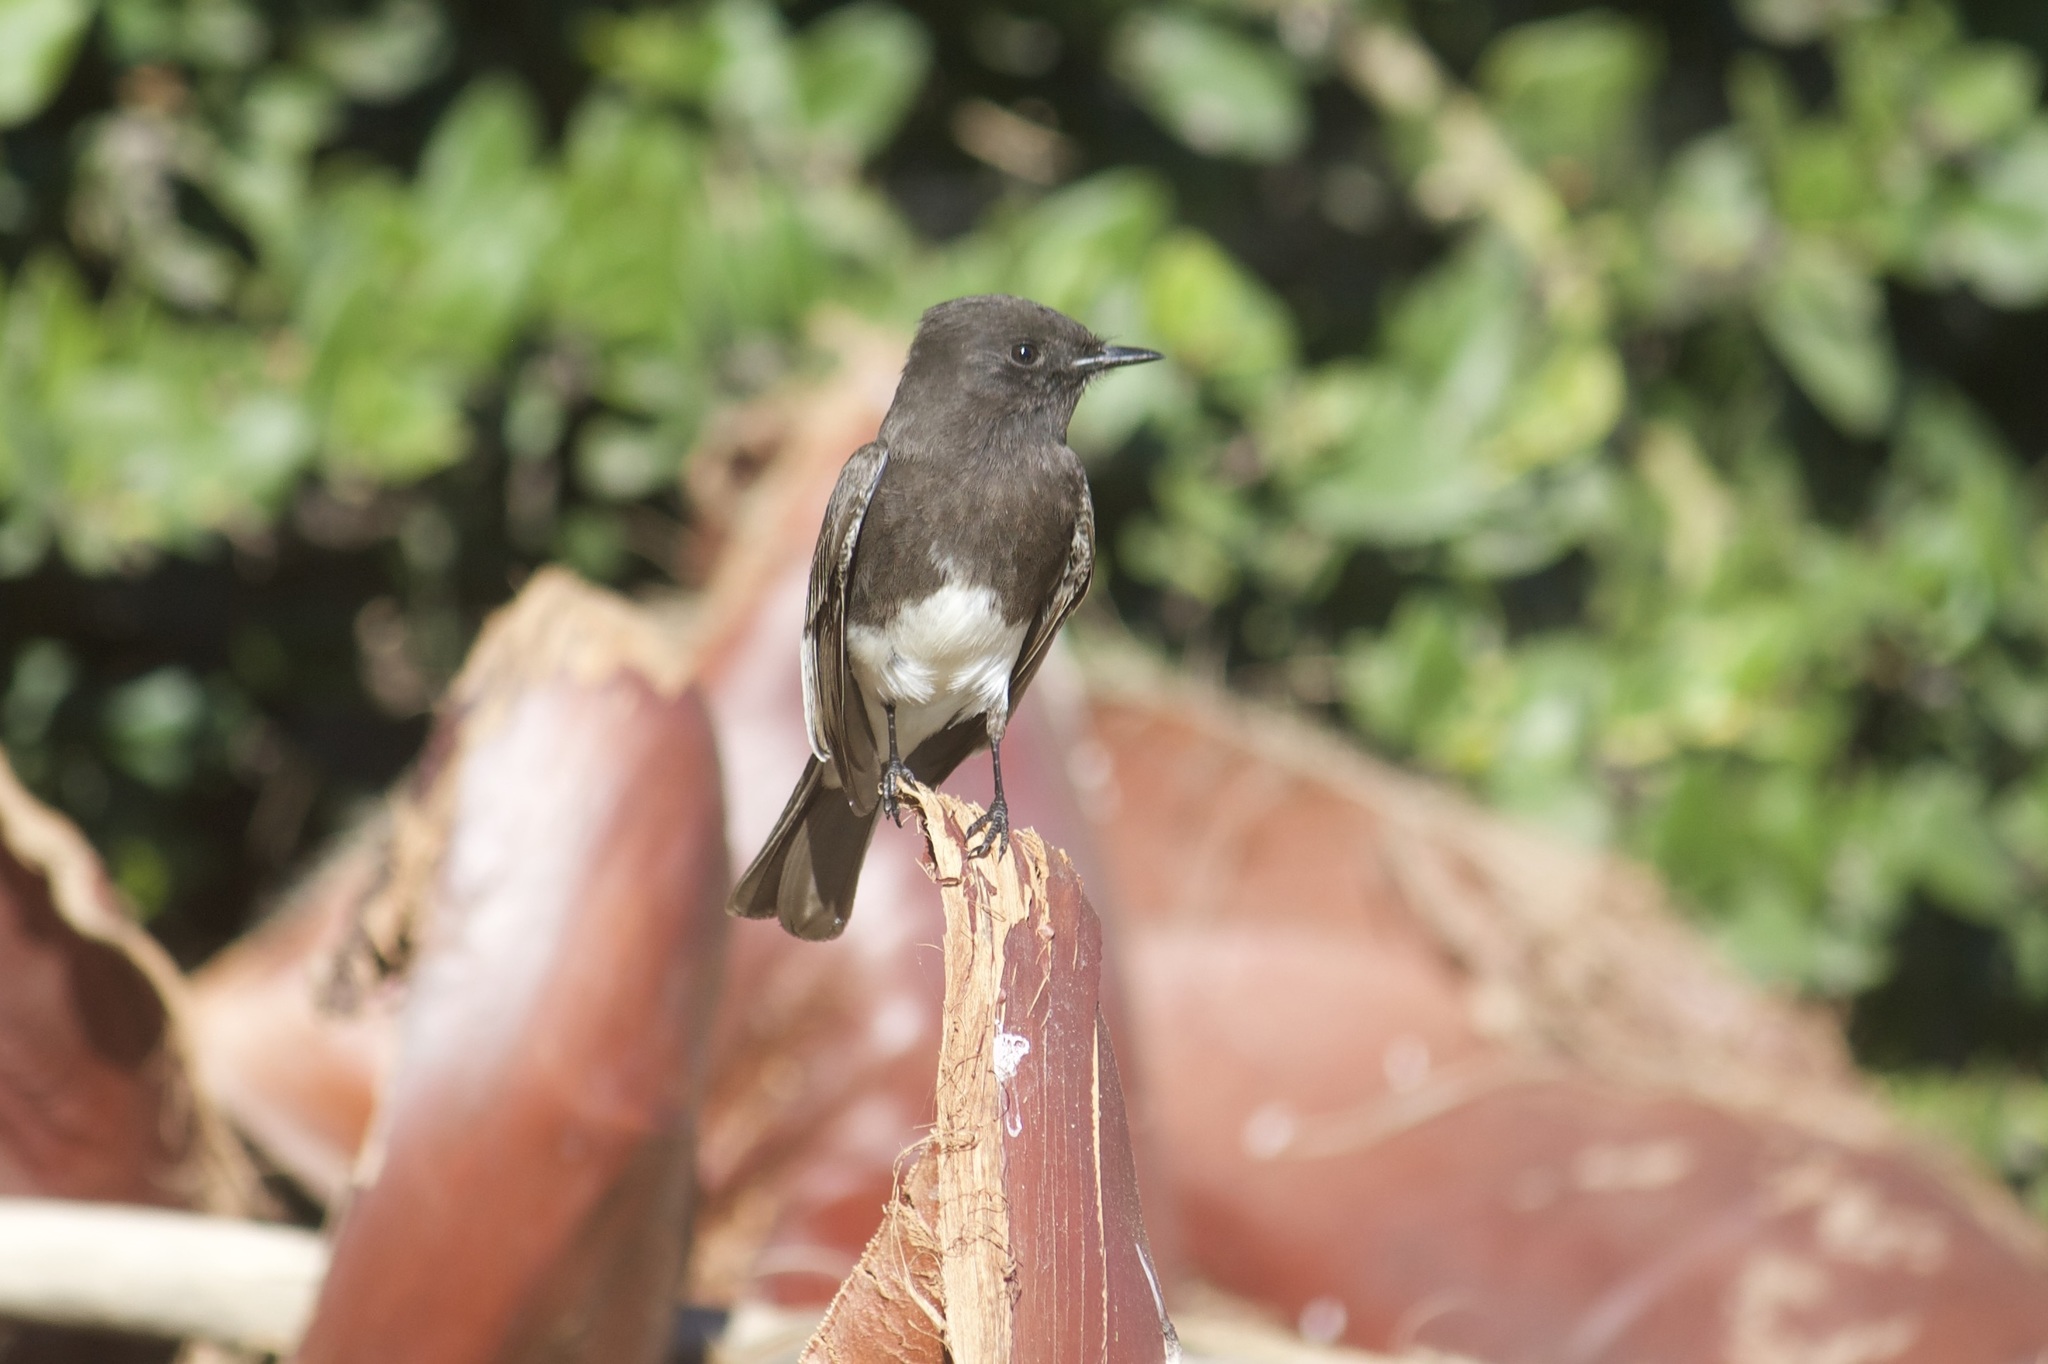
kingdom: Animalia
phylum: Chordata
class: Aves
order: Passeriformes
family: Tyrannidae
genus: Sayornis
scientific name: Sayornis nigricans
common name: Black phoebe
